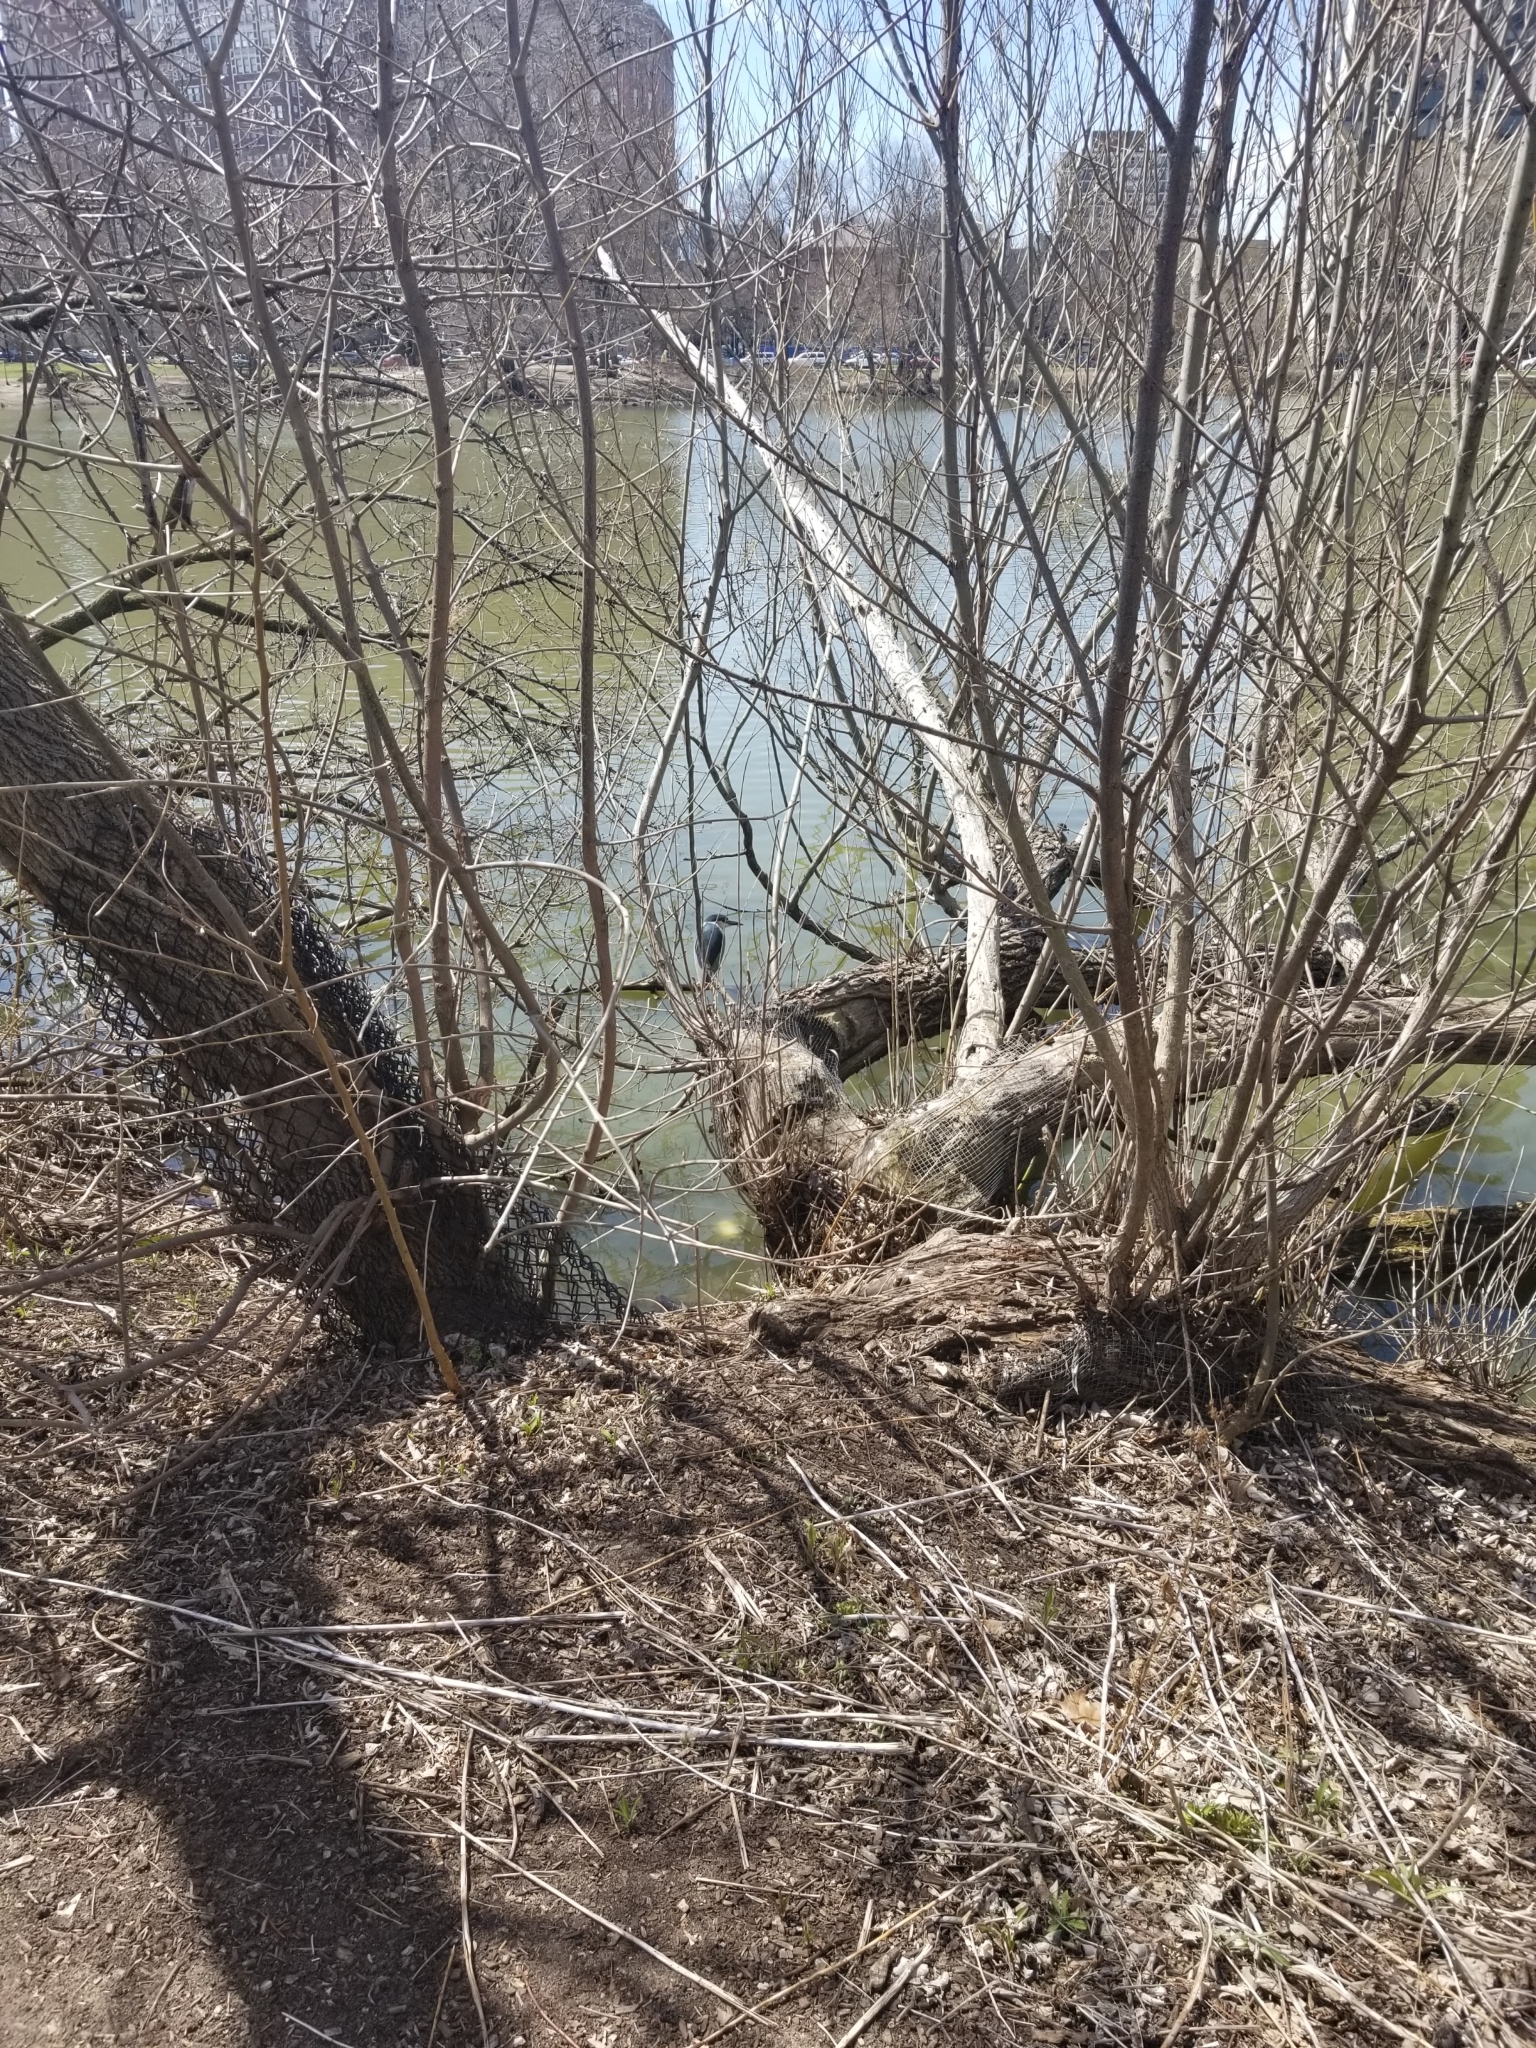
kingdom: Animalia
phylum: Chordata
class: Aves
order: Pelecaniformes
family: Ardeidae
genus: Nycticorax
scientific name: Nycticorax nycticorax
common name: Black-crowned night heron
